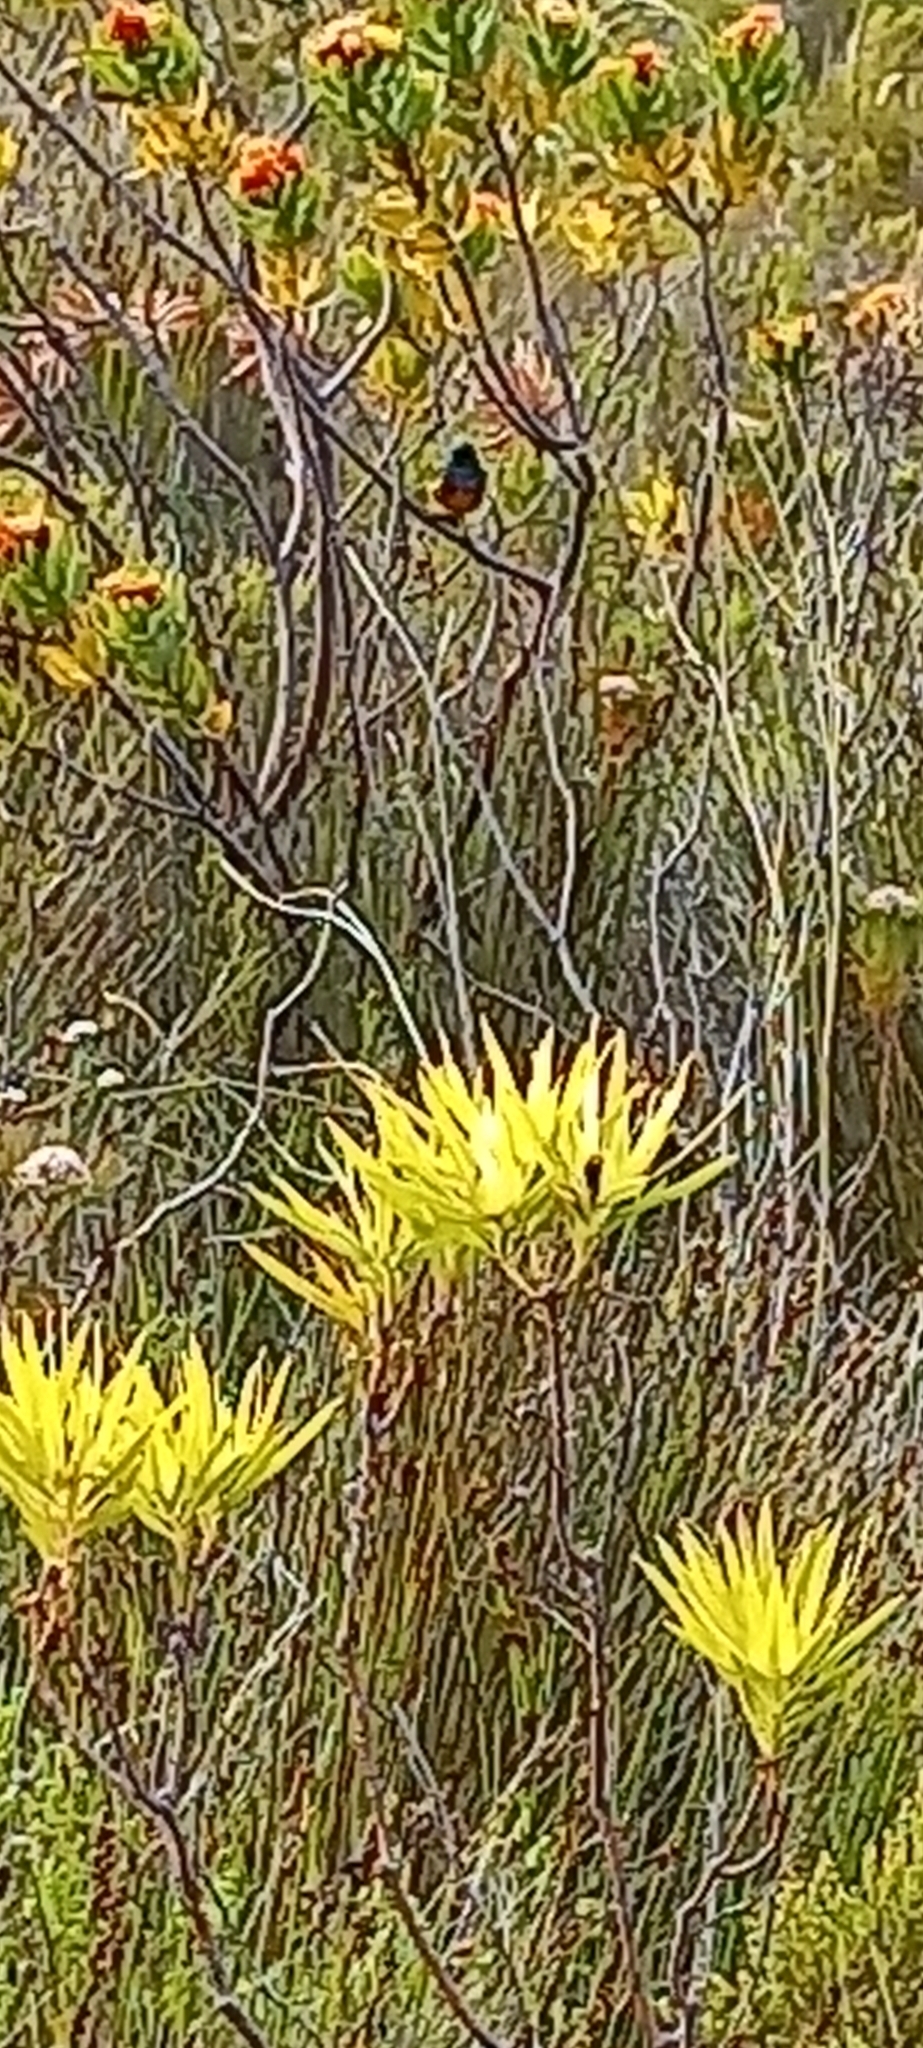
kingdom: Animalia
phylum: Chordata
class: Aves
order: Passeriformes
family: Nectariniidae
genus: Anthobaphes
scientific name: Anthobaphes violacea
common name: Orange-breasted sunbird
